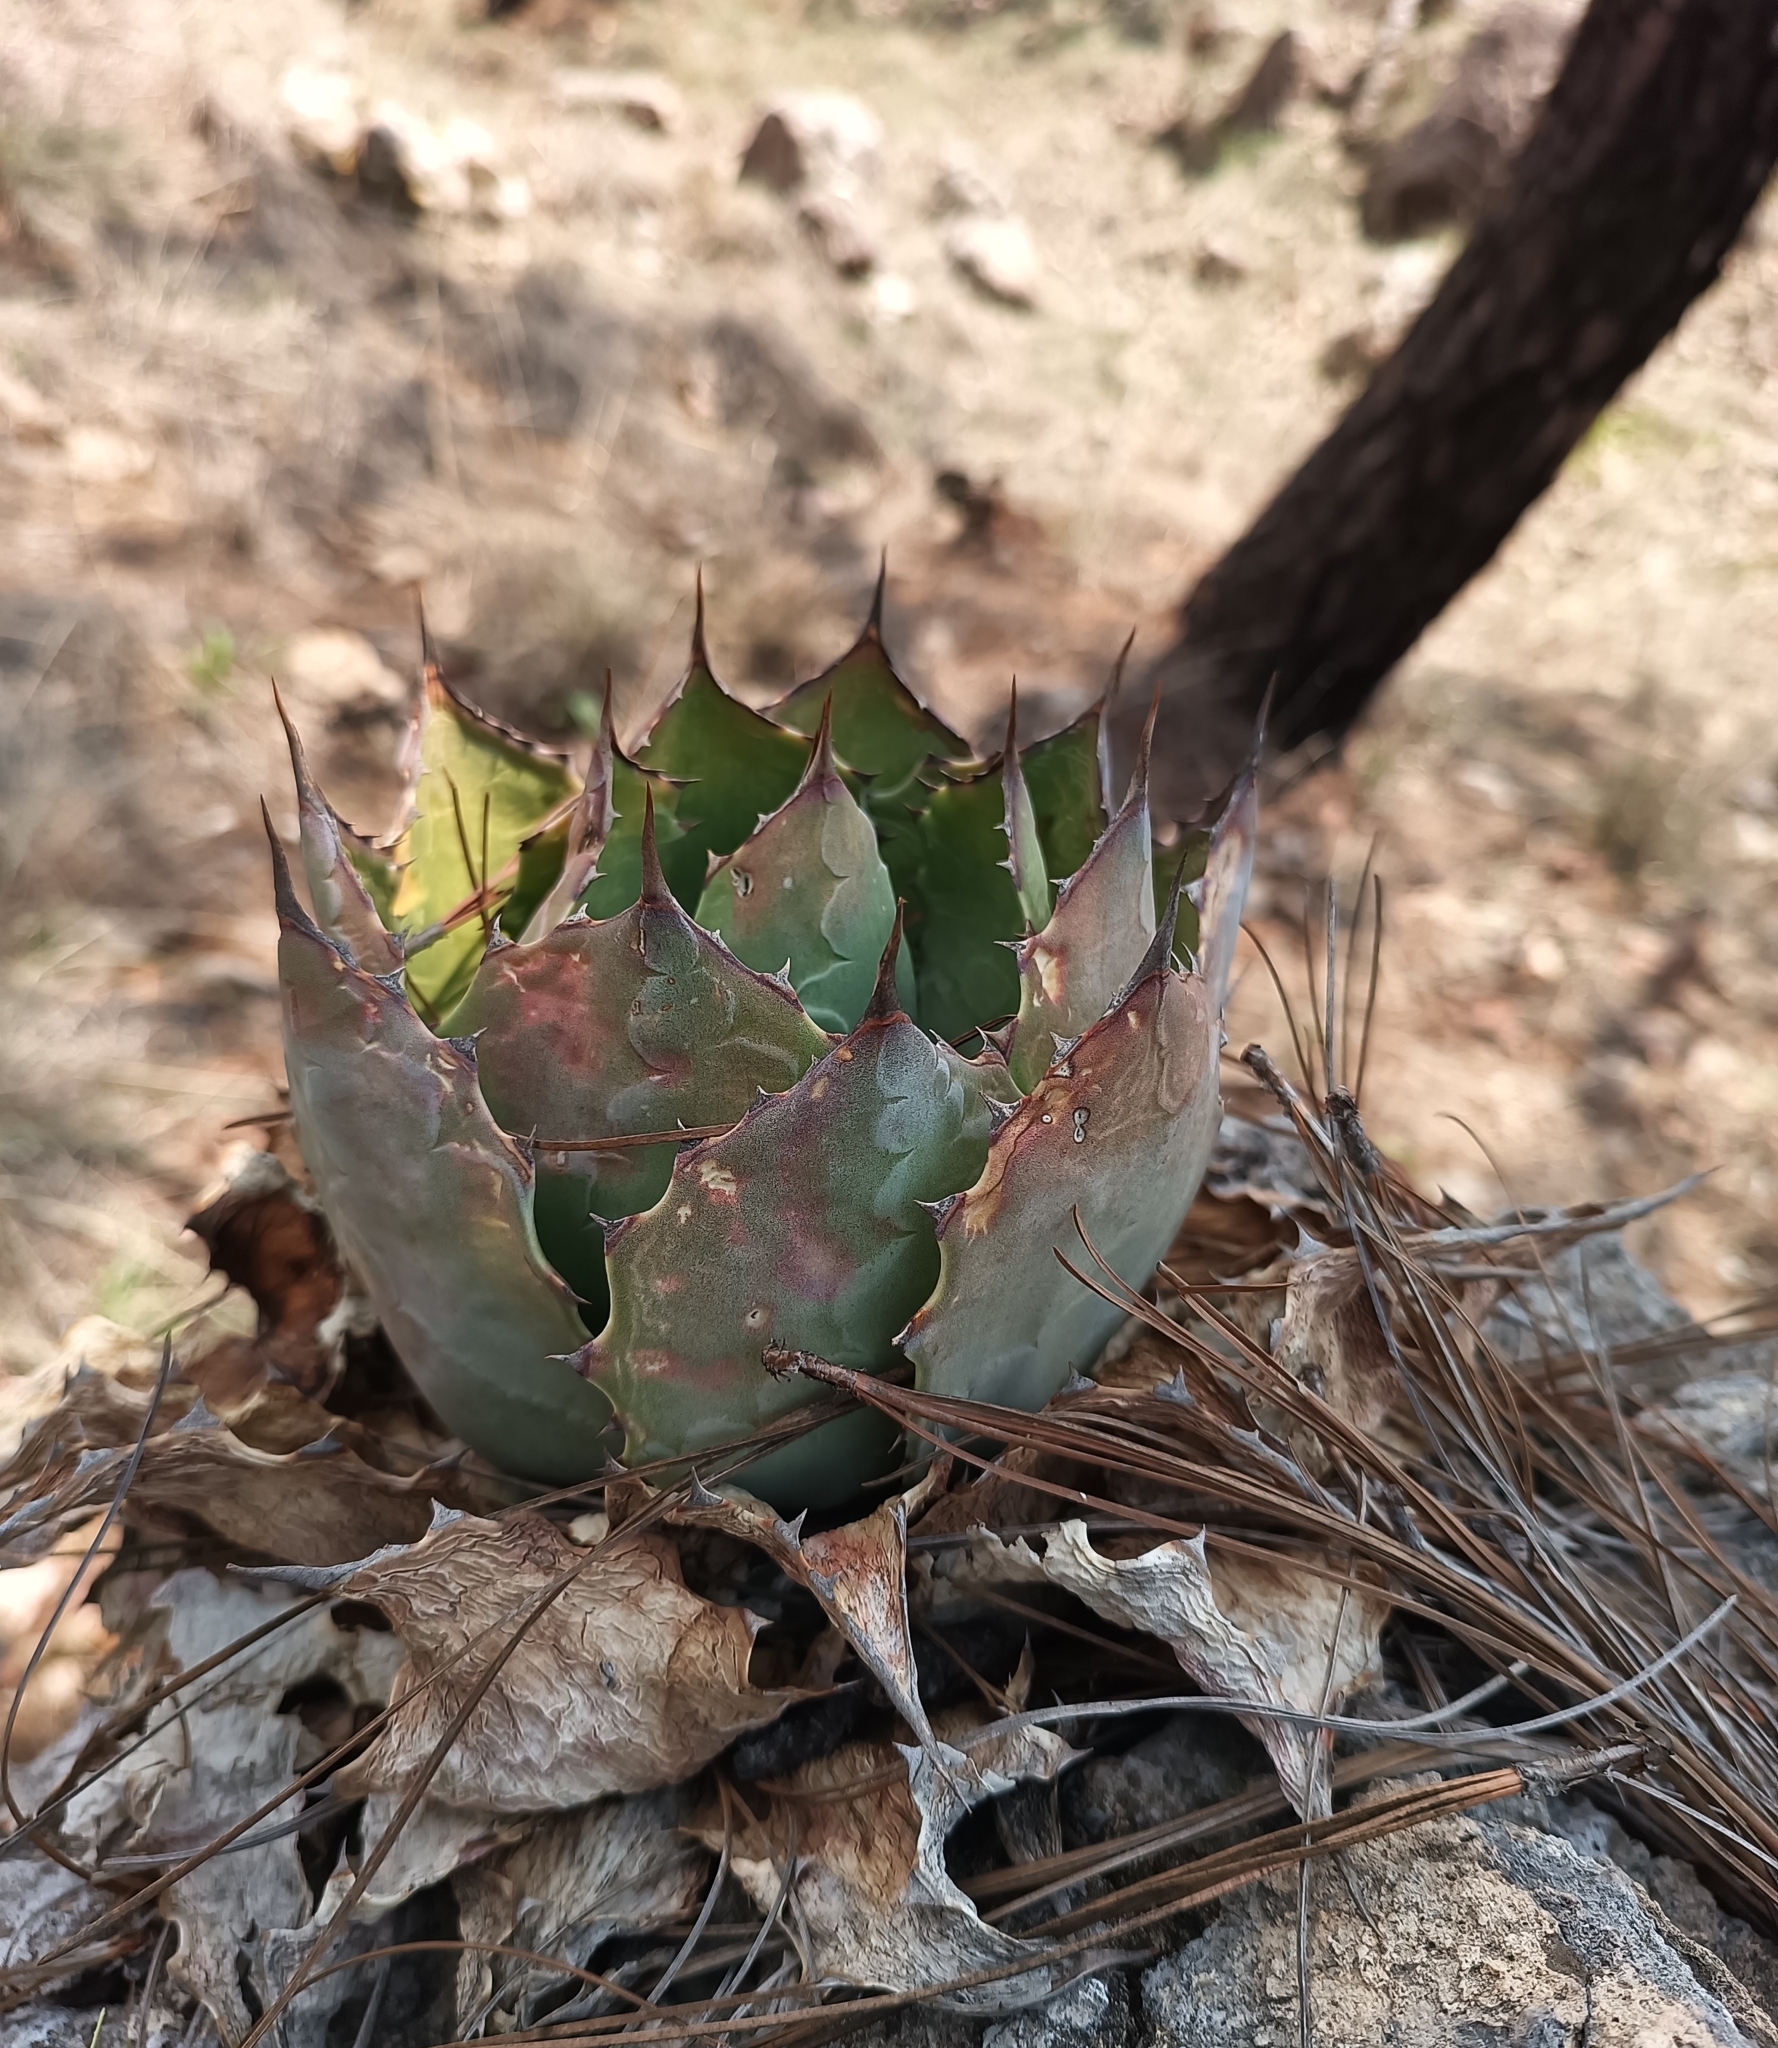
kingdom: Plantae
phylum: Tracheophyta
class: Liliopsida
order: Asparagales
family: Asparagaceae
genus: Agave
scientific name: Agave guadalajarana
